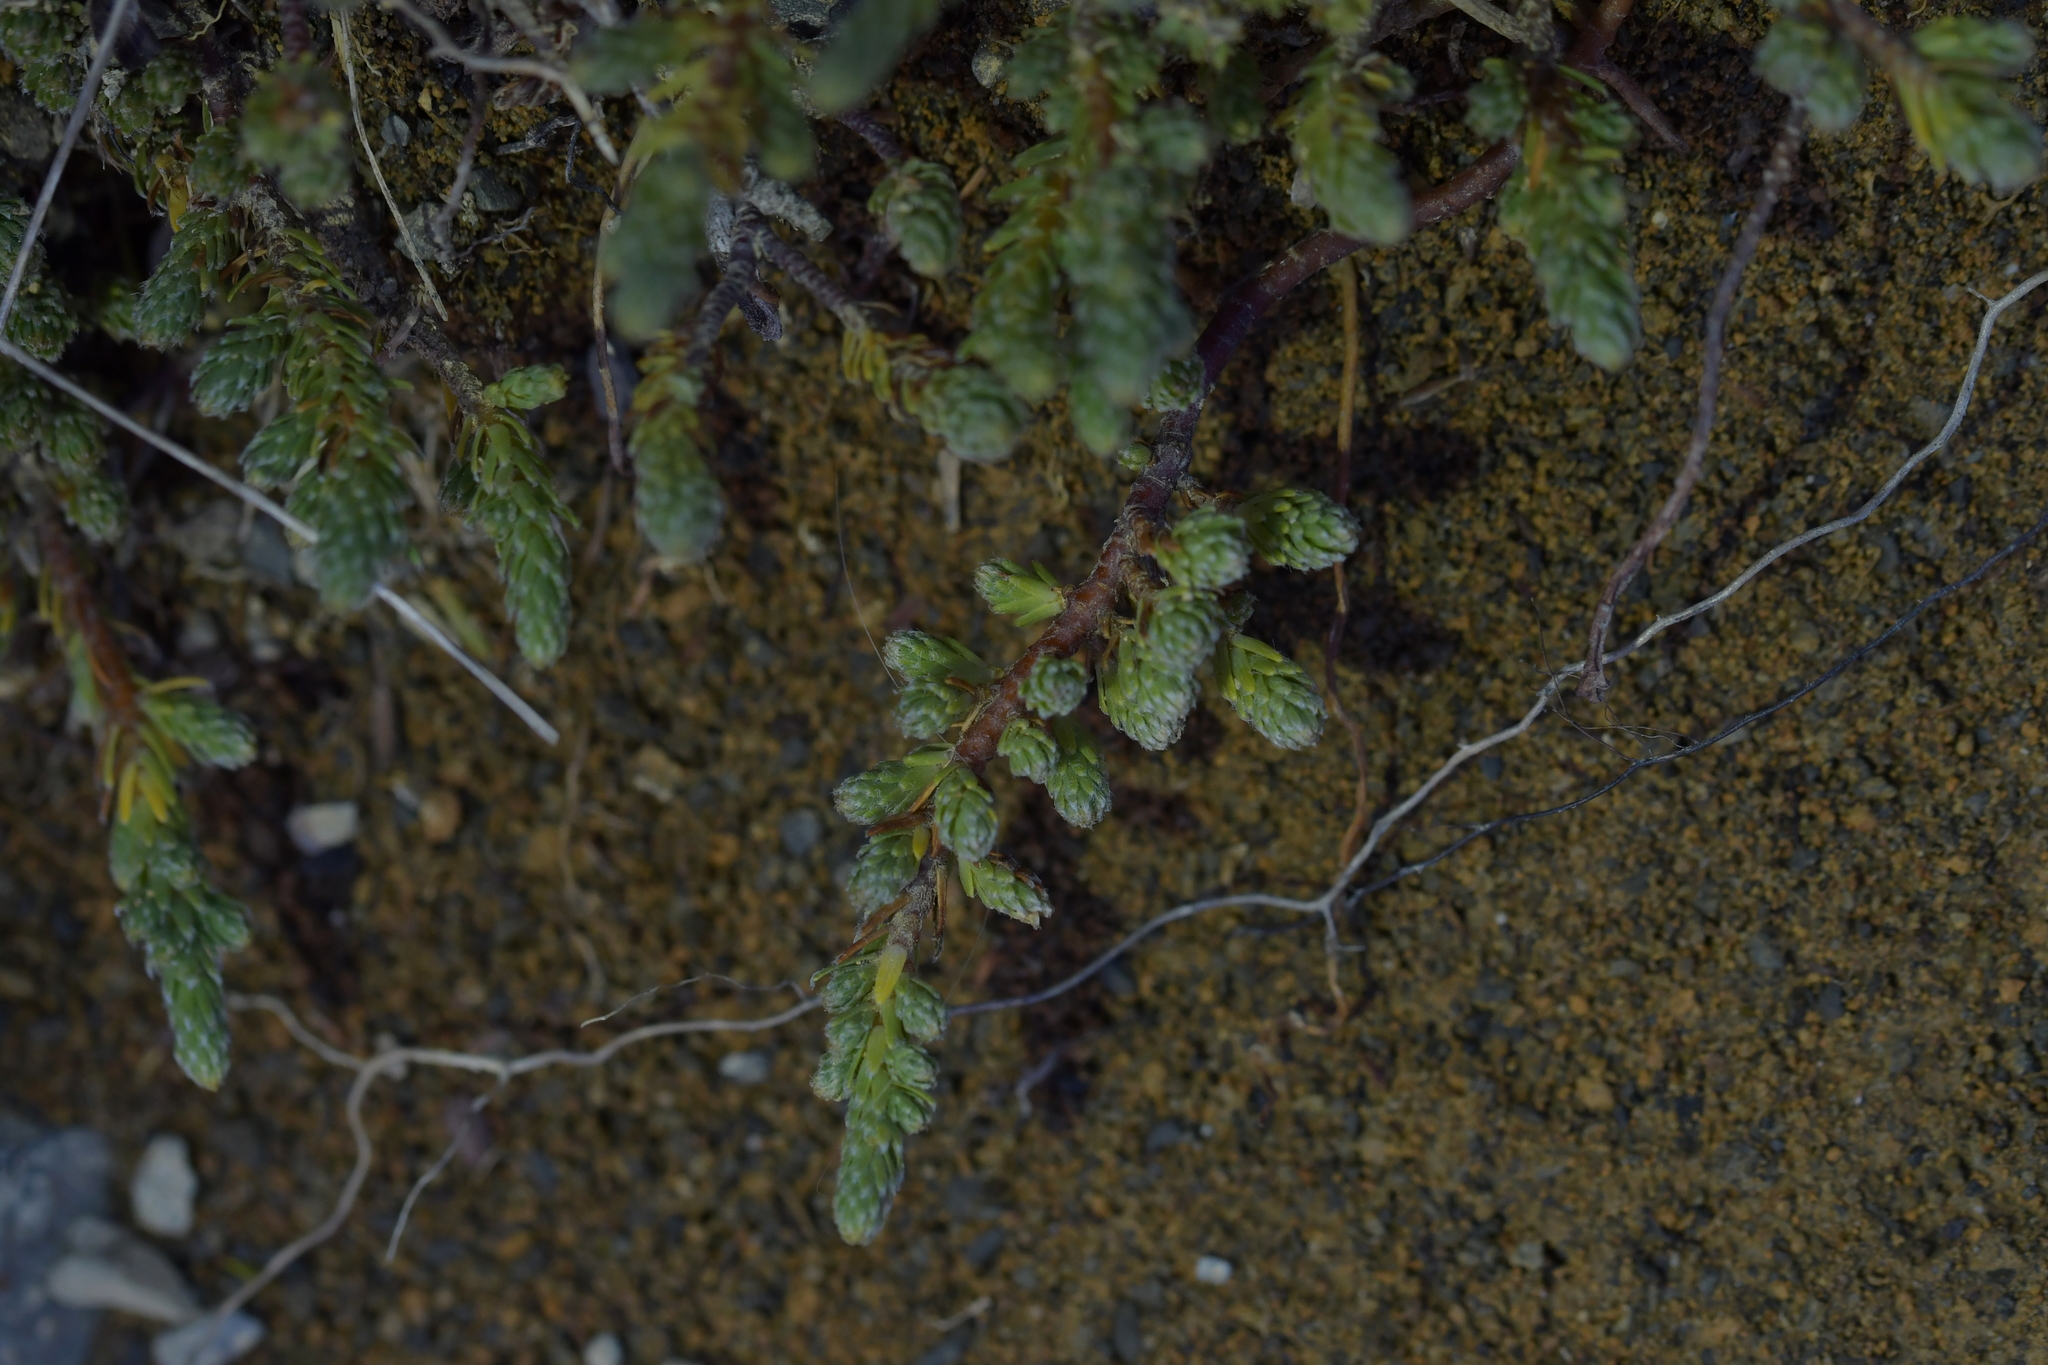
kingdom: Plantae
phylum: Tracheophyta
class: Magnoliopsida
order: Malvales
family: Thymelaeaceae
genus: Kelleria
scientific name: Kelleria dieffenbachii
